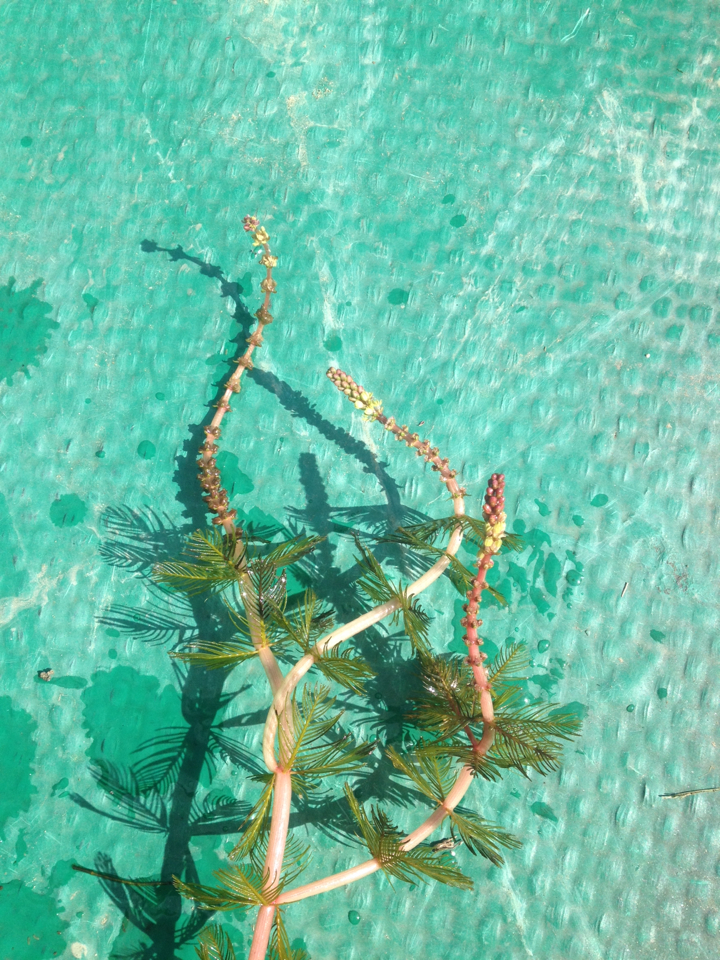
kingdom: Plantae
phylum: Tracheophyta
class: Magnoliopsida
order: Saxifragales
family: Haloragaceae
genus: Myriophyllum
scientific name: Myriophyllum spicatum
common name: Spiked water-milfoil
